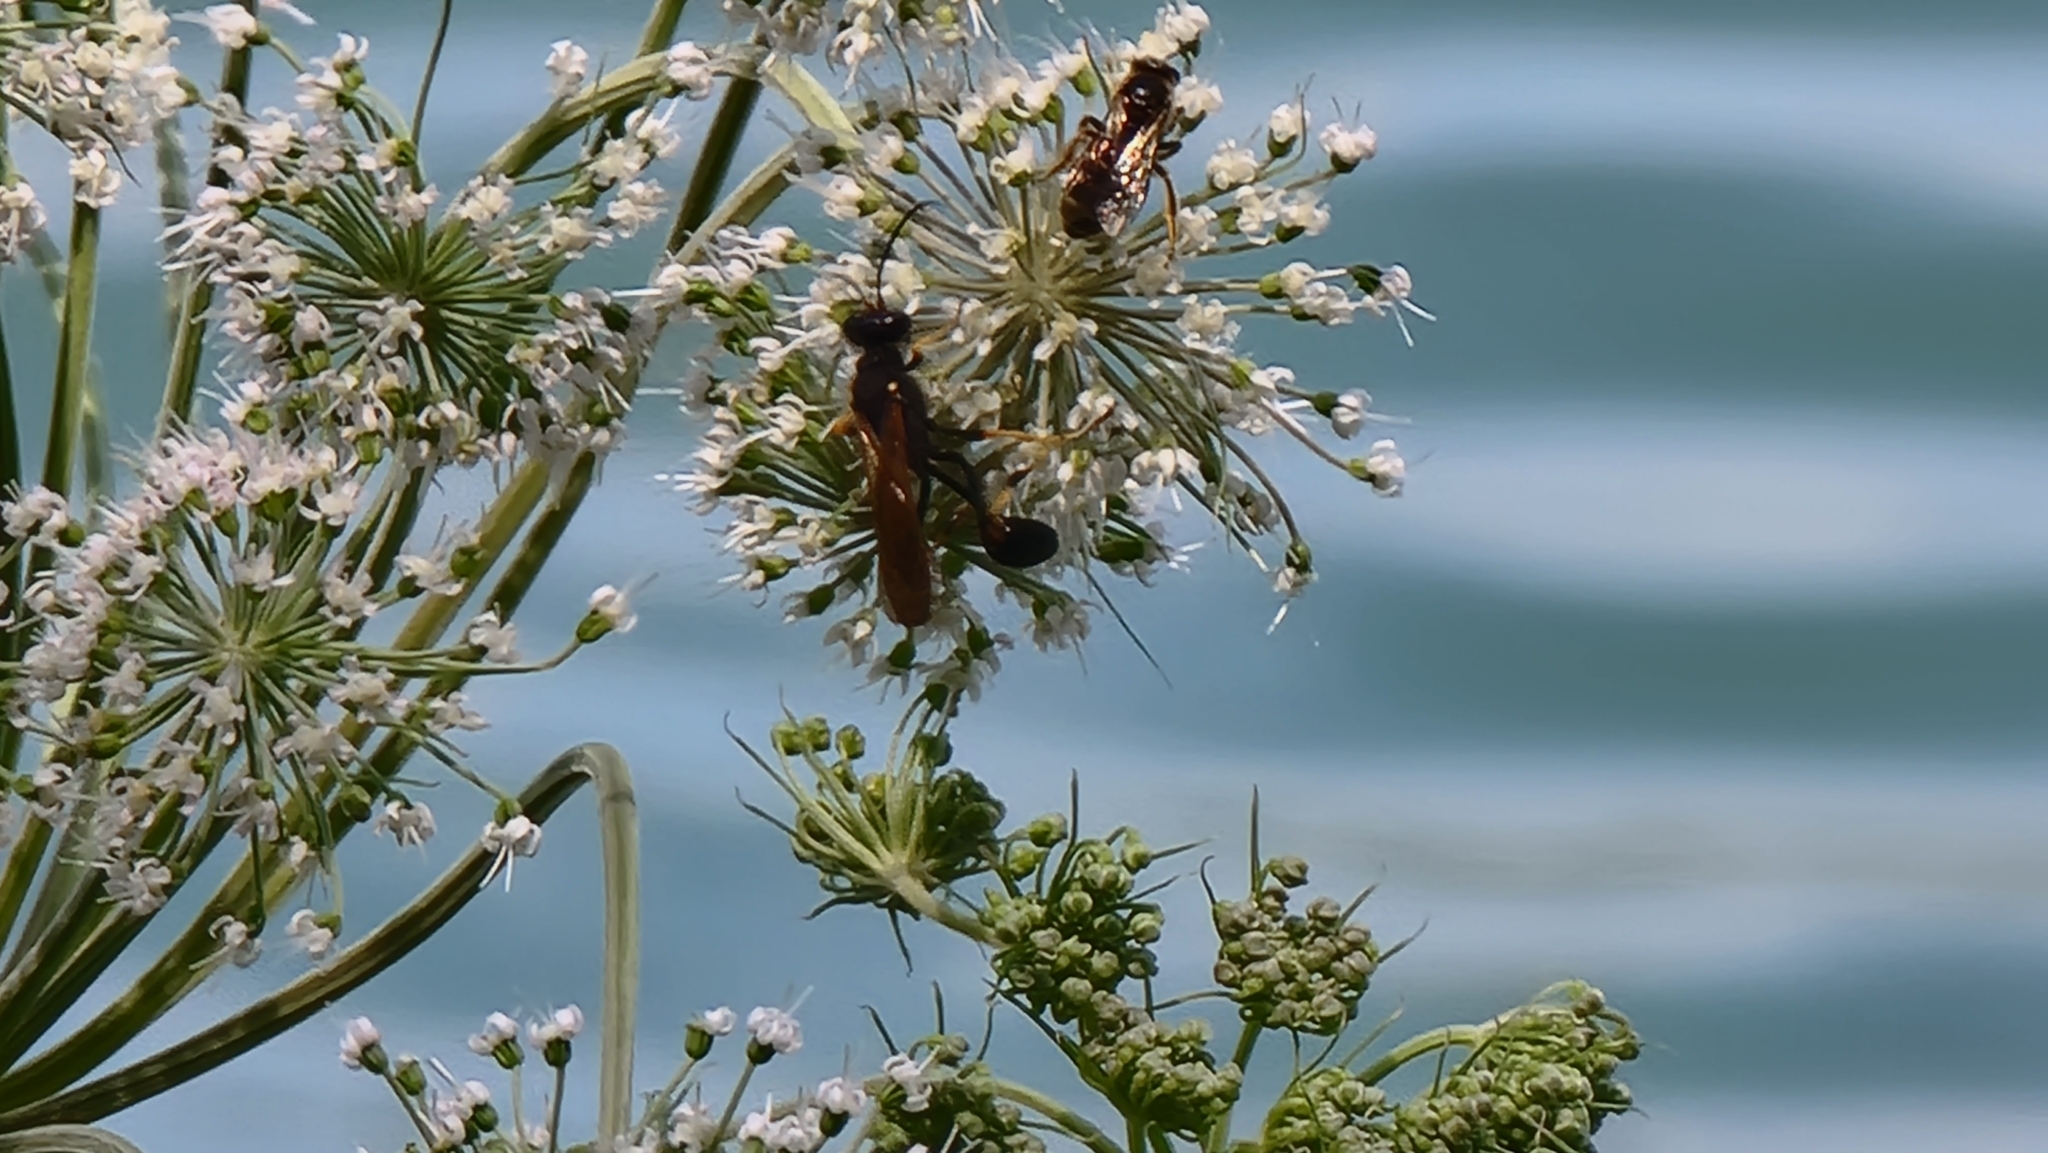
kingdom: Animalia
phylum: Arthropoda
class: Insecta
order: Hymenoptera
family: Sphecidae
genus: Sceliphron
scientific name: Sceliphron caementarium
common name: Mud dauber
